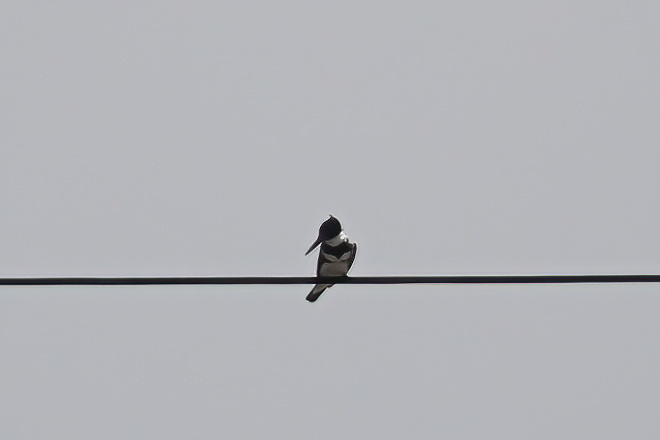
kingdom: Animalia
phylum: Chordata
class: Aves
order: Coraciiformes
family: Alcedinidae
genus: Megaceryle
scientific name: Megaceryle alcyon
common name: Belted kingfisher
